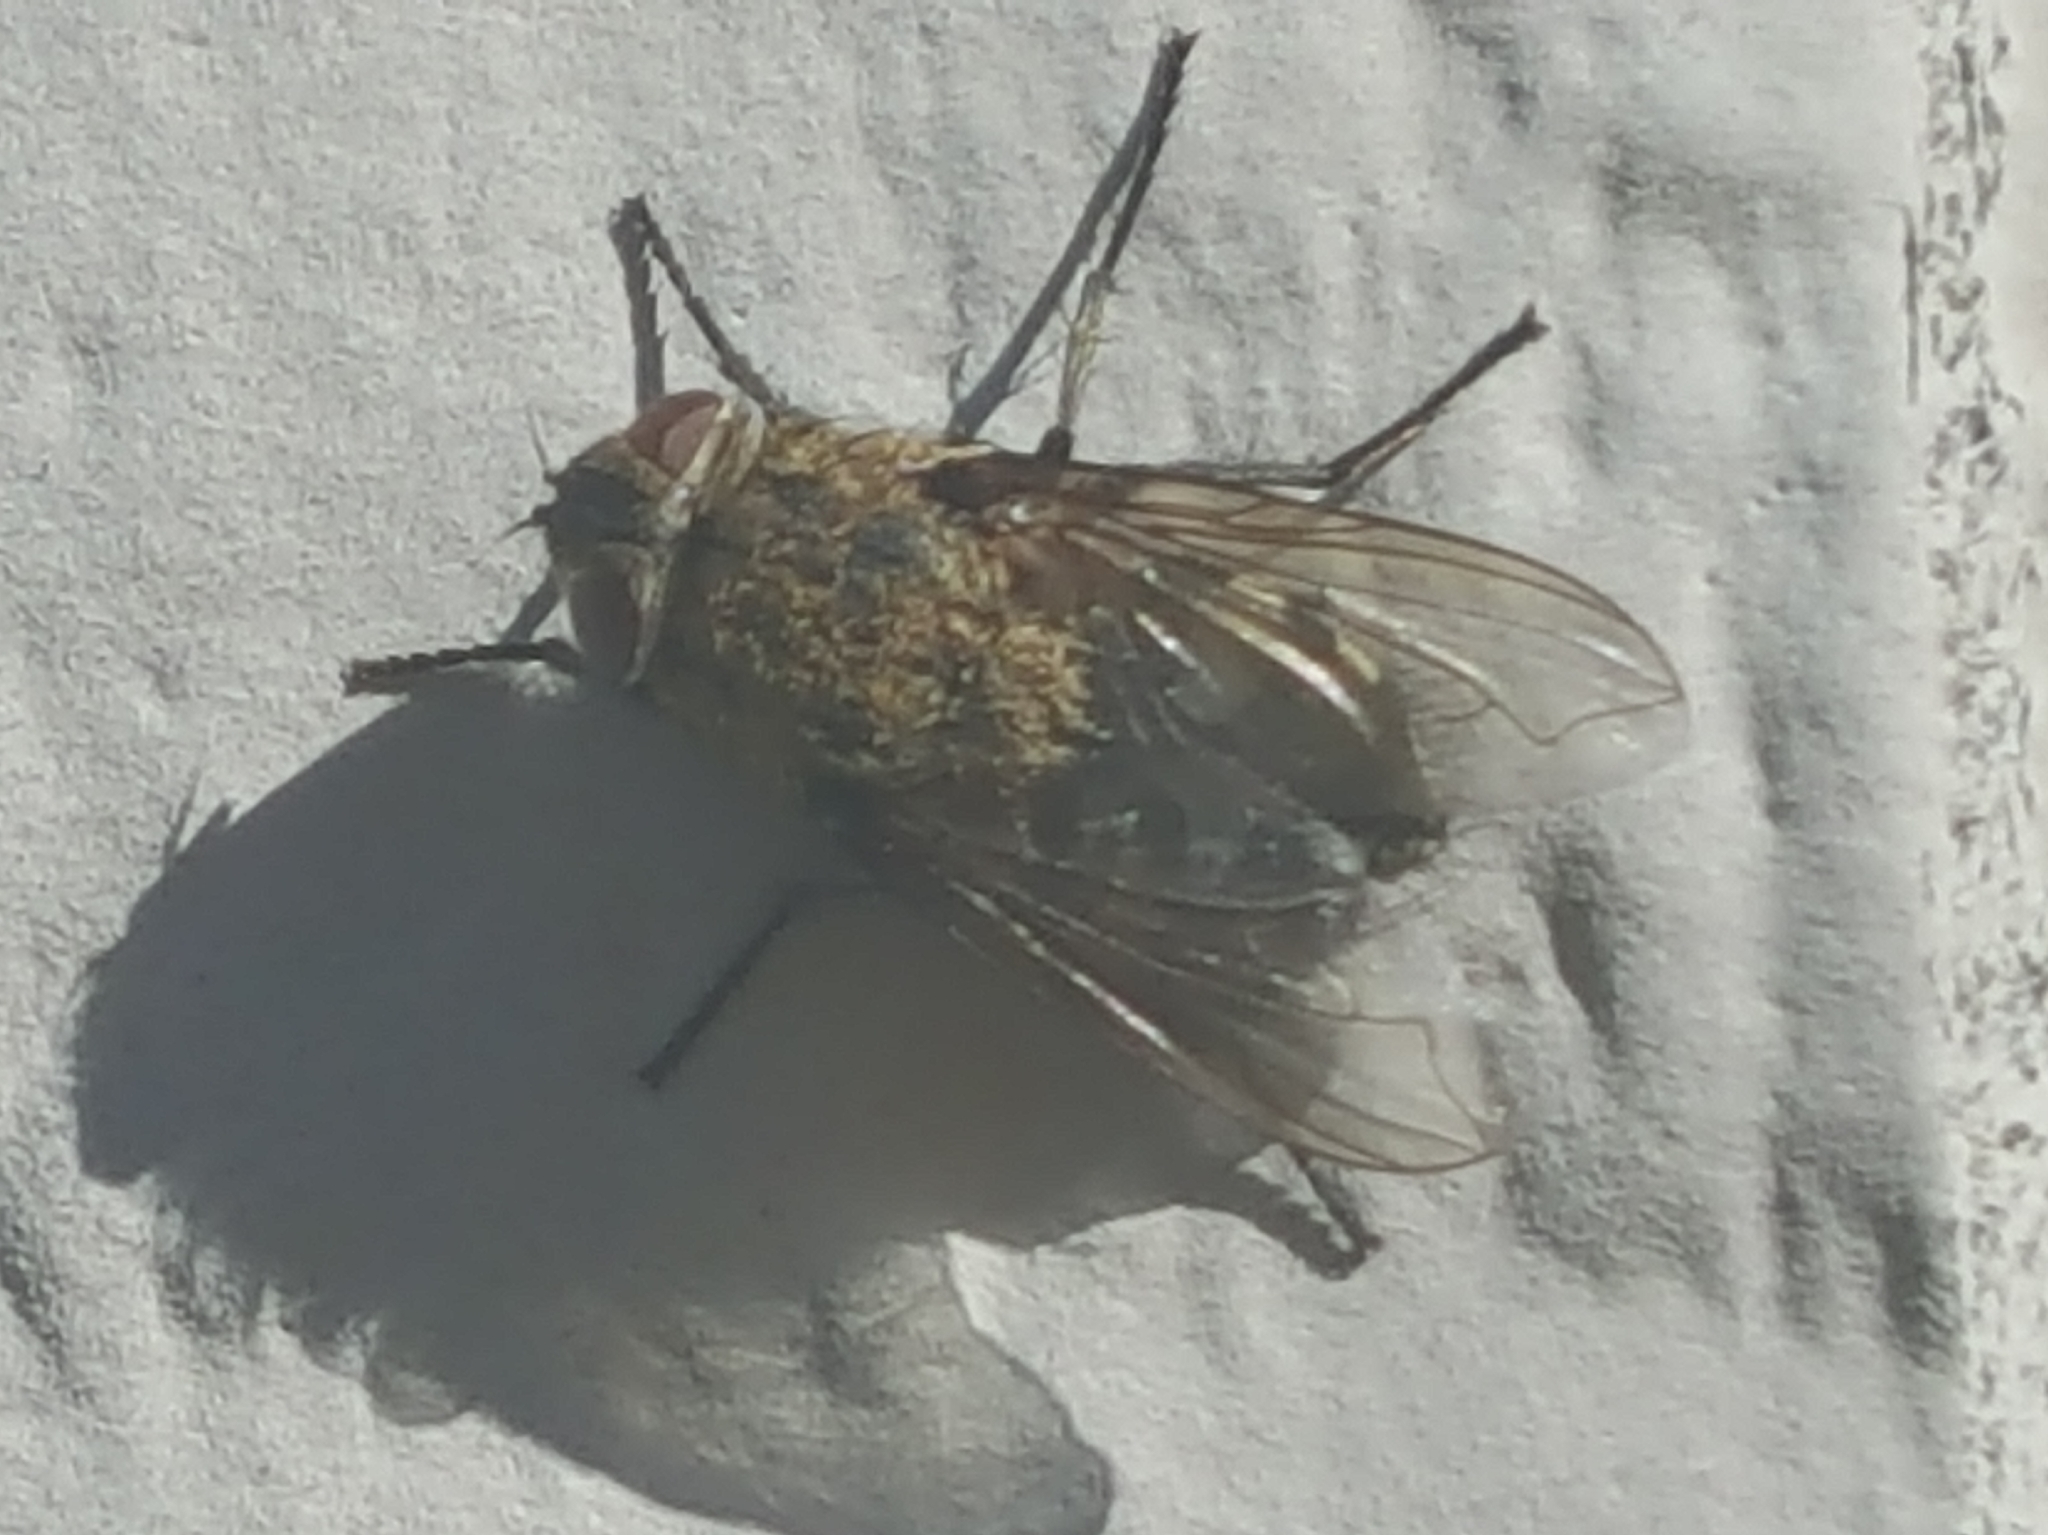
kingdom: Animalia
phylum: Arthropoda
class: Insecta
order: Diptera
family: Polleniidae
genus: Pollenia
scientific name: Pollenia
